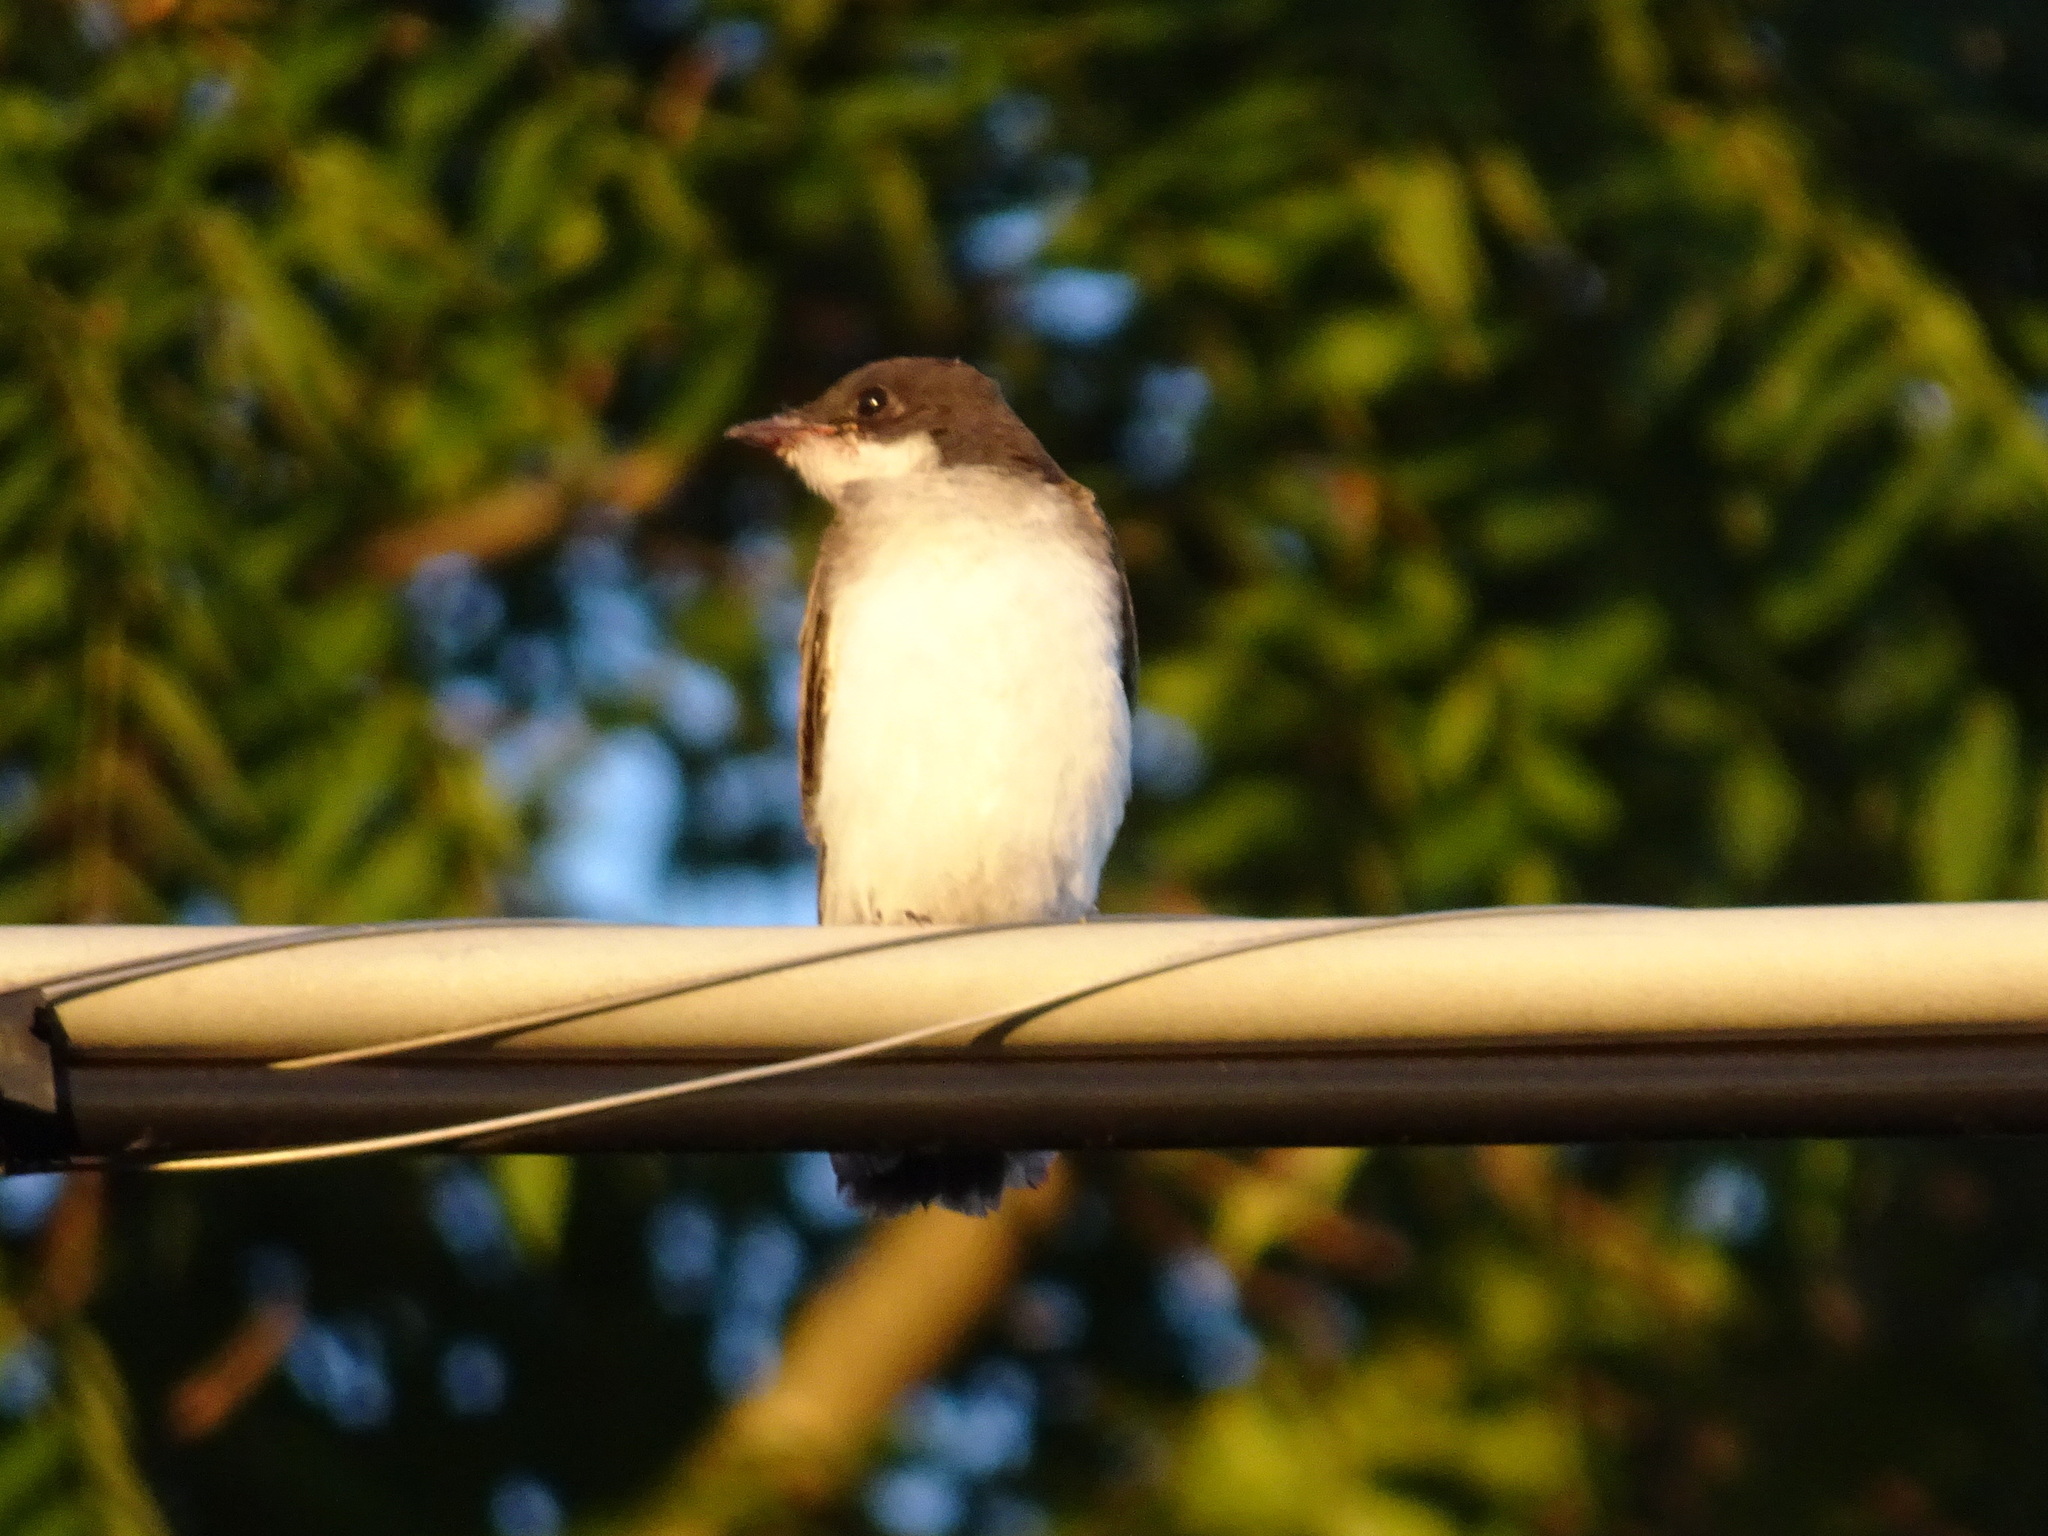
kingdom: Animalia
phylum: Chordata
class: Aves
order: Passeriformes
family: Tyrannidae
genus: Tyrannus
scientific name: Tyrannus tyrannus
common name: Eastern kingbird
